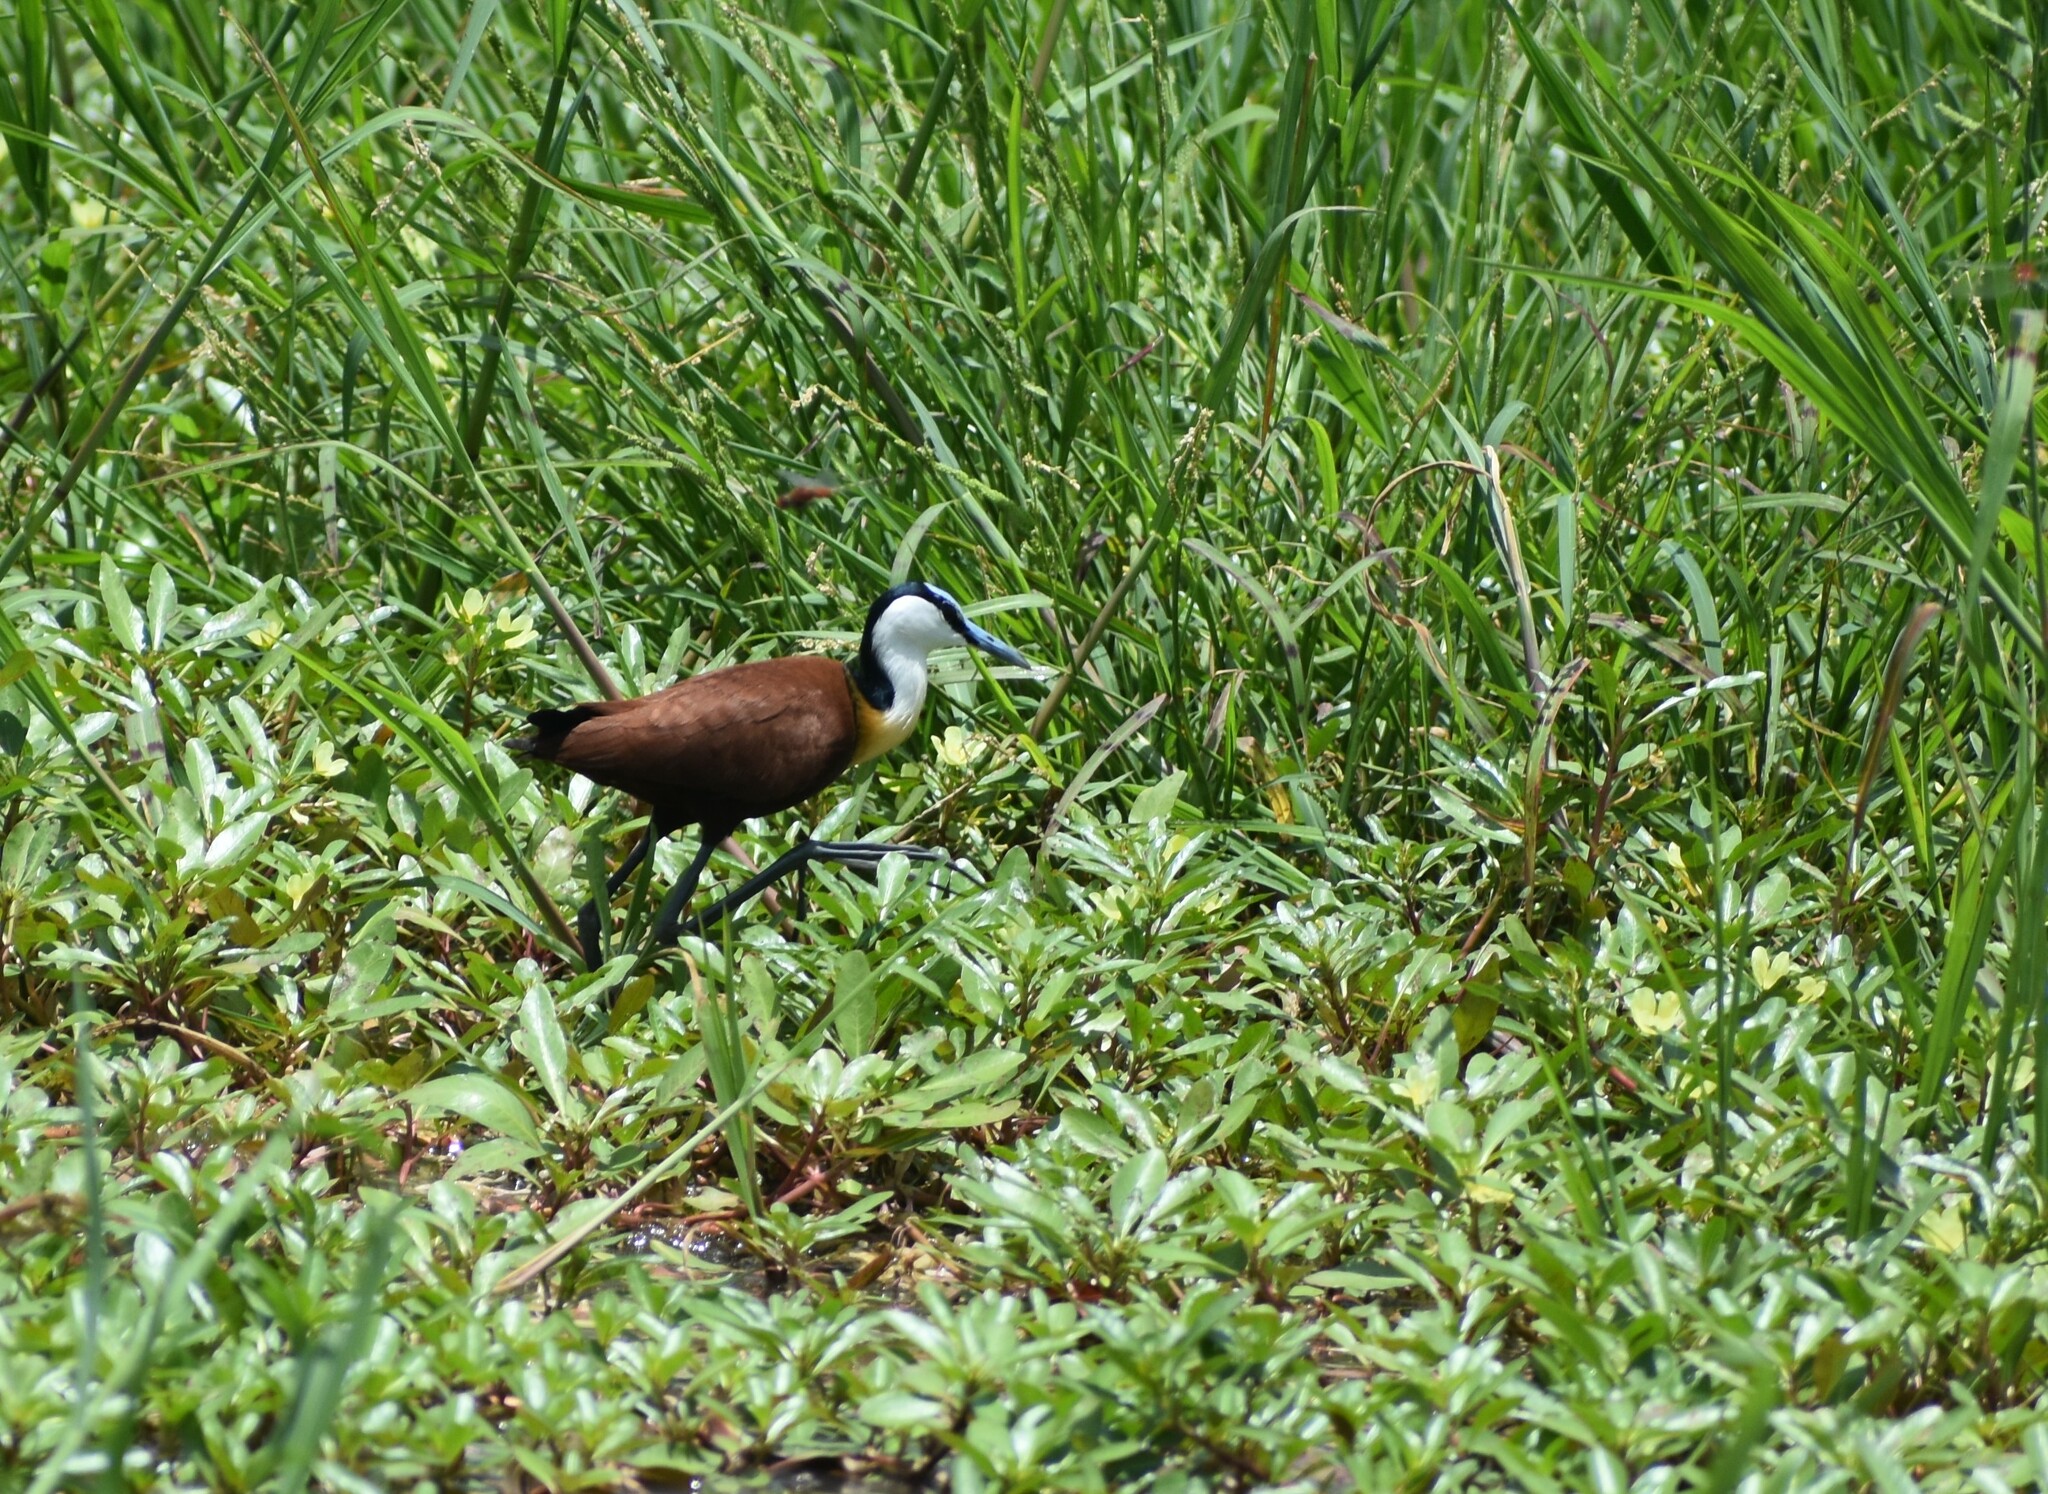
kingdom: Animalia
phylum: Chordata
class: Aves
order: Charadriiformes
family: Jacanidae
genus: Actophilornis
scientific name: Actophilornis africanus
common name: African jacana
